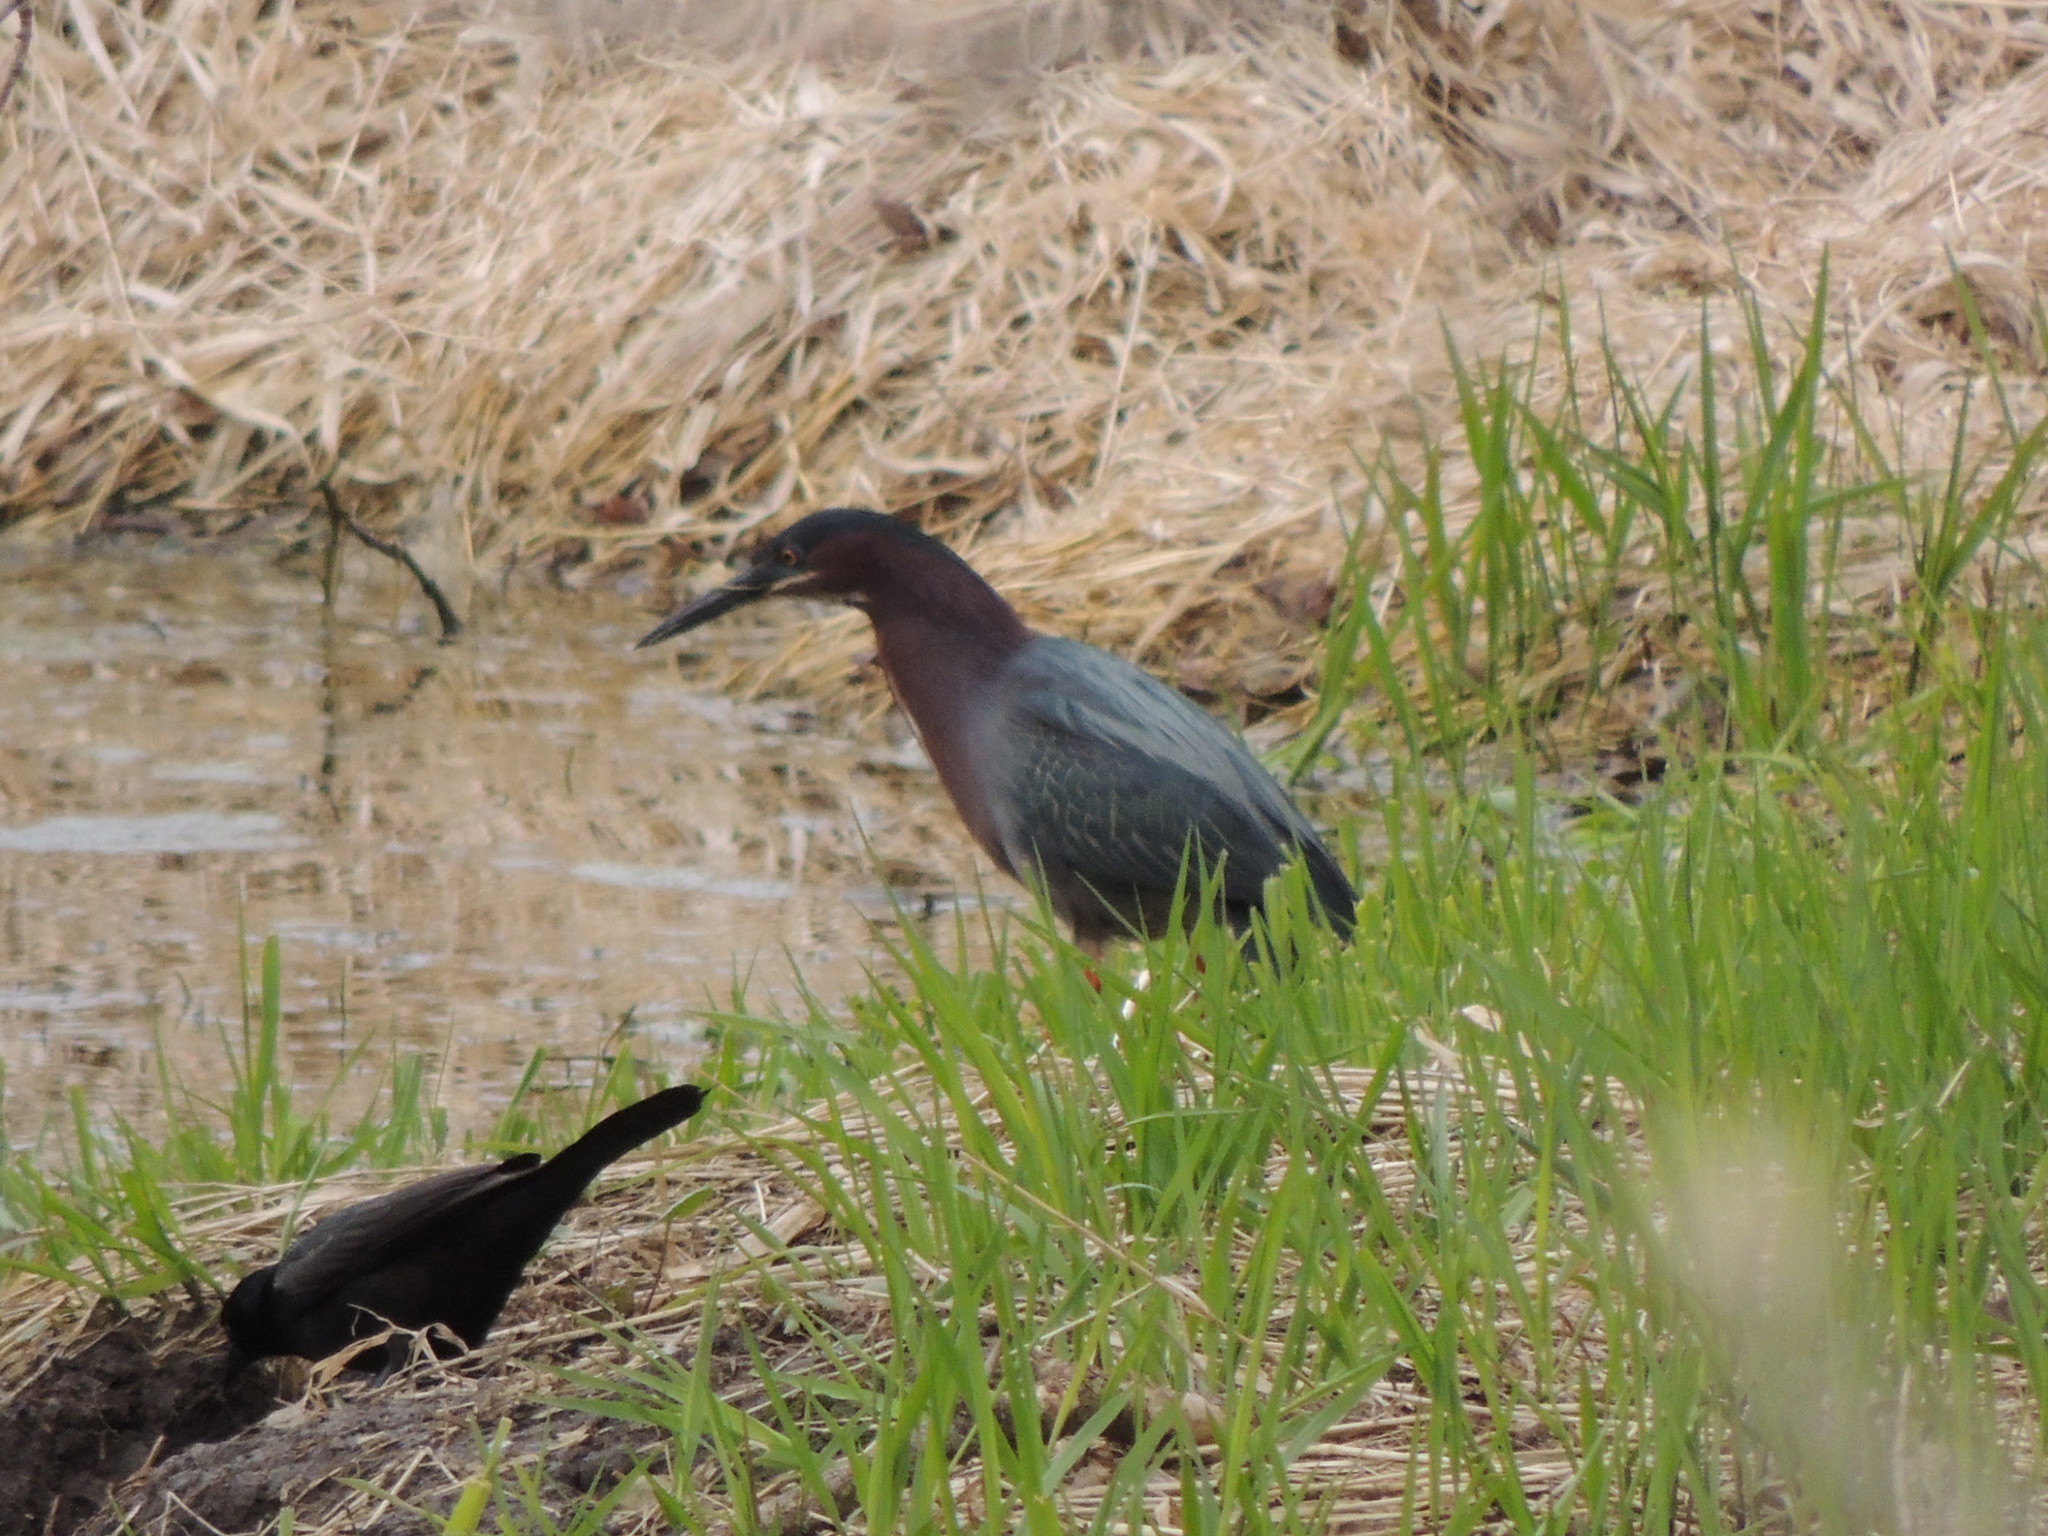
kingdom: Animalia
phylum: Chordata
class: Aves
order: Pelecaniformes
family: Ardeidae
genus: Butorides
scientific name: Butorides virescens
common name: Green heron
